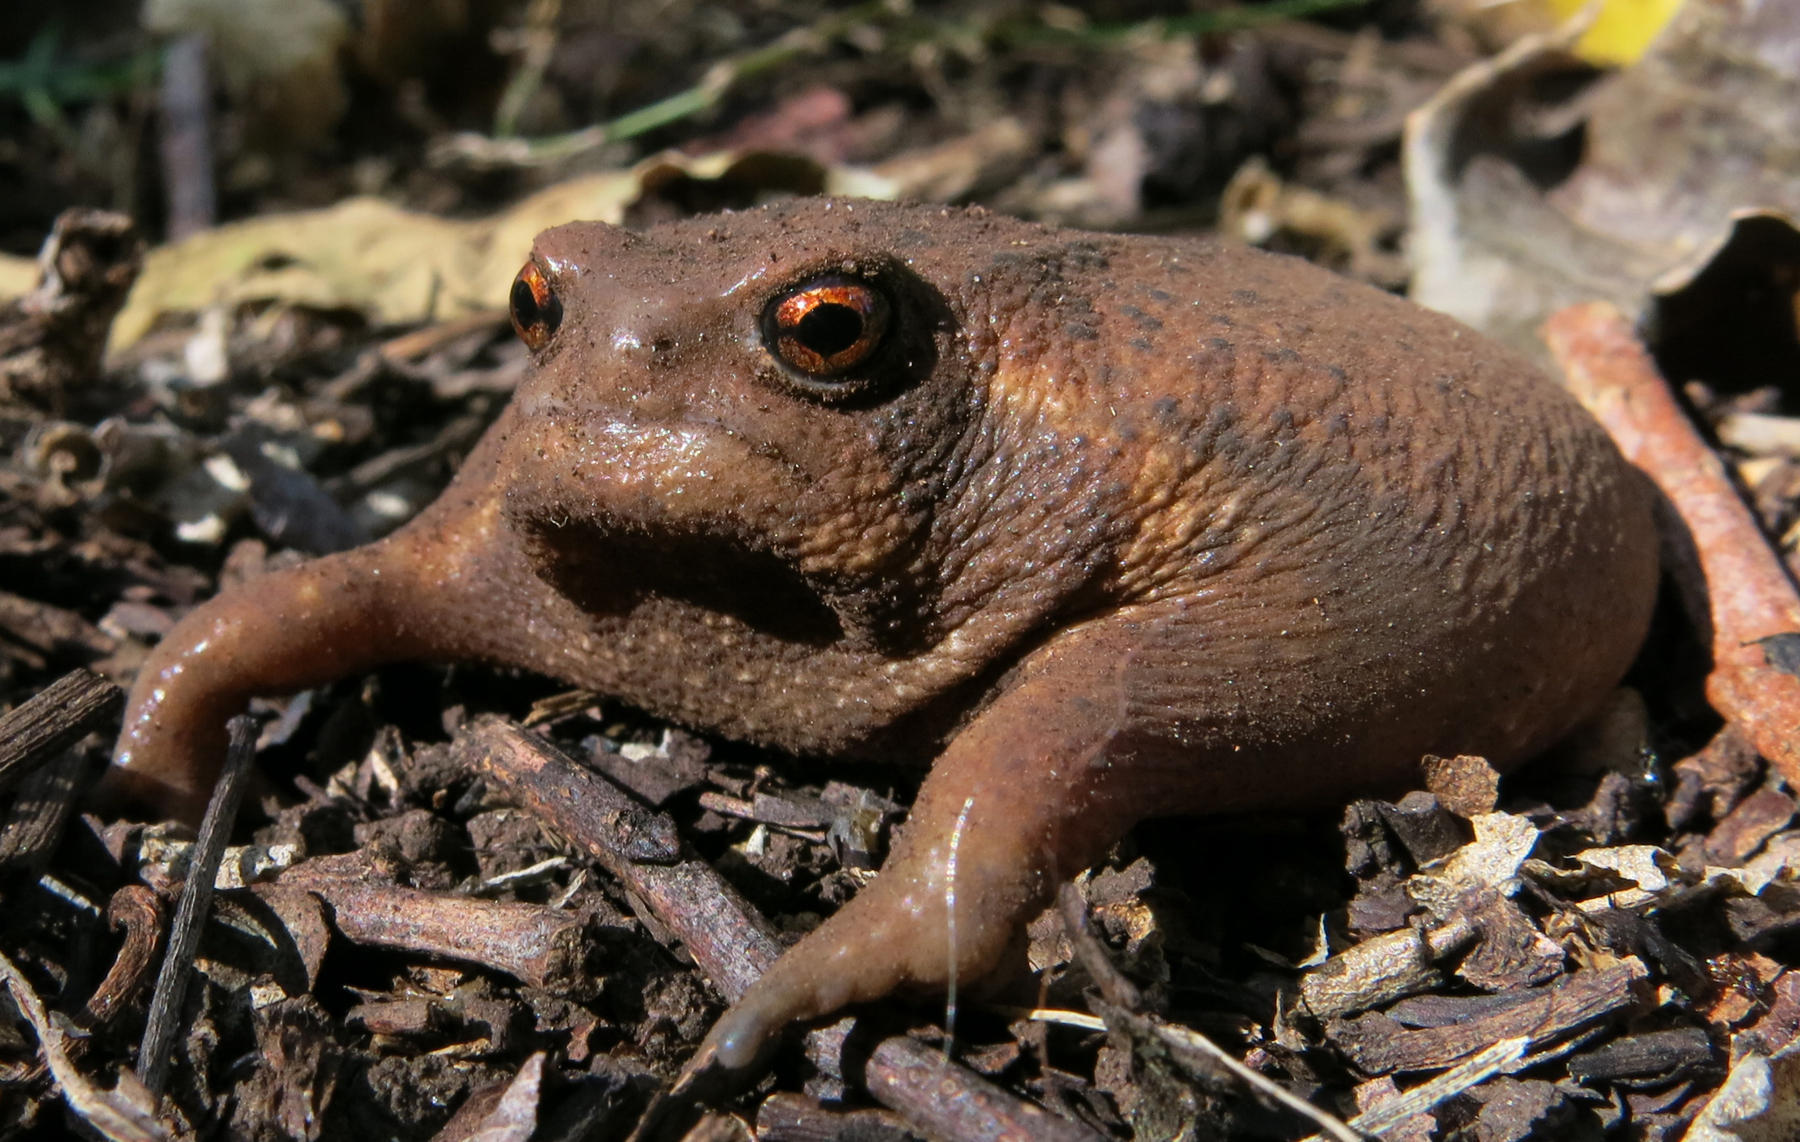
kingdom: Animalia
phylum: Chordata
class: Amphibia
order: Anura
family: Brevicipitidae
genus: Breviceps
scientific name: Breviceps sylvestris
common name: Northern forest rain frog
